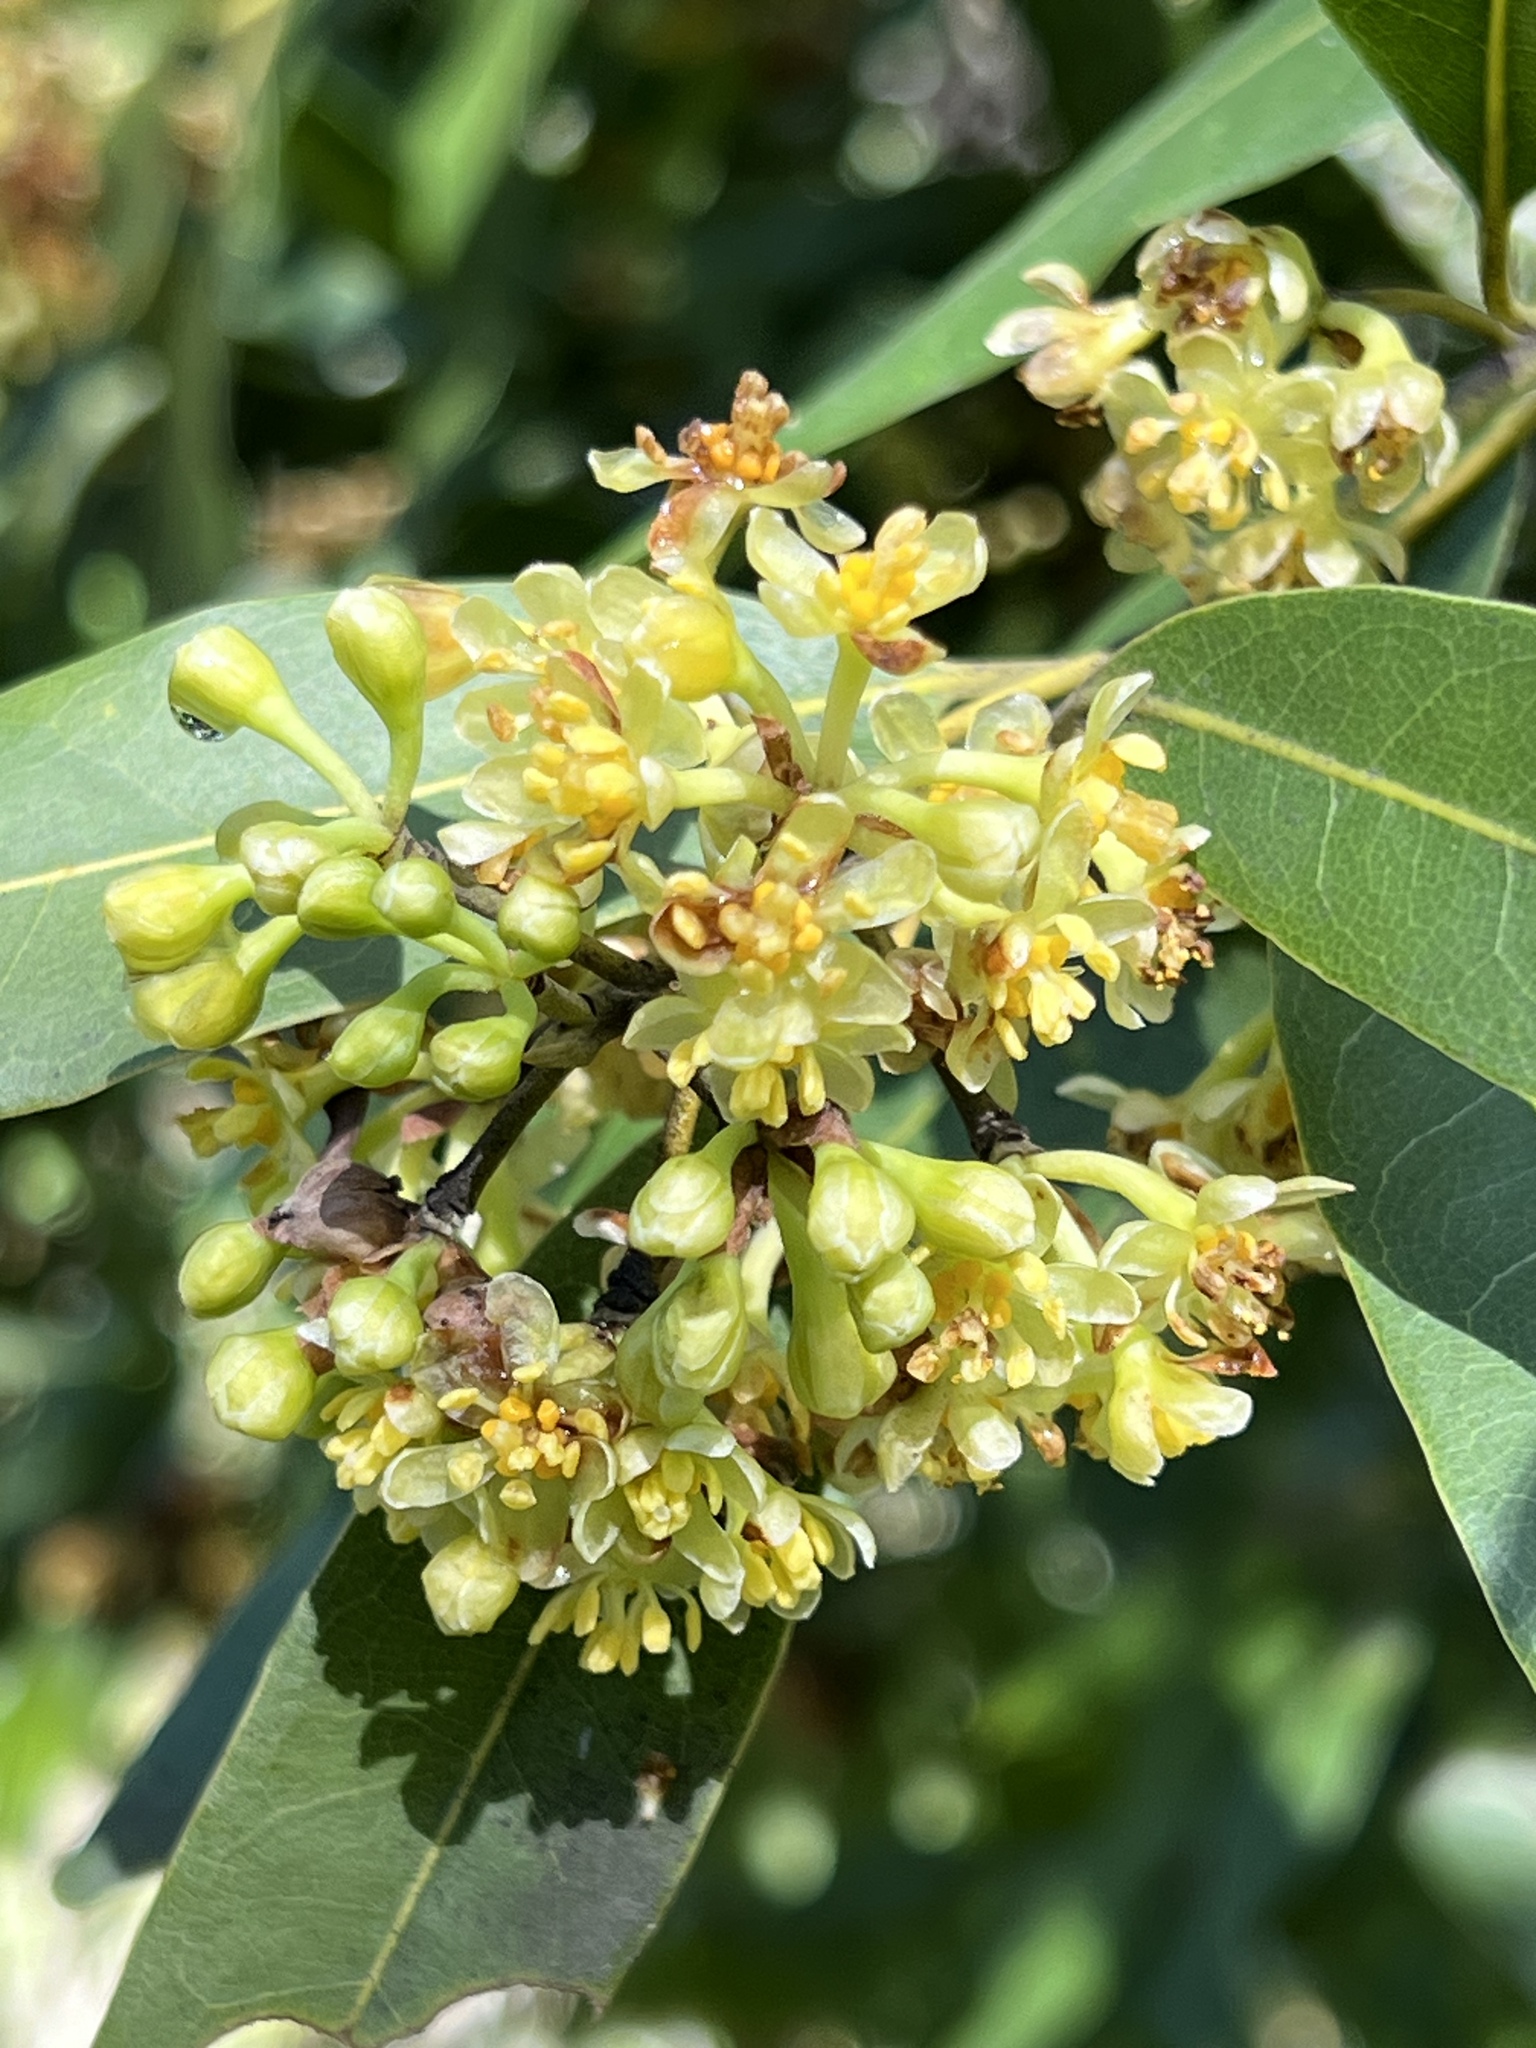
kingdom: Plantae
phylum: Tracheophyta
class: Magnoliopsida
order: Laurales
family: Lauraceae
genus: Umbellularia
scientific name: Umbellularia californica
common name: California bay
